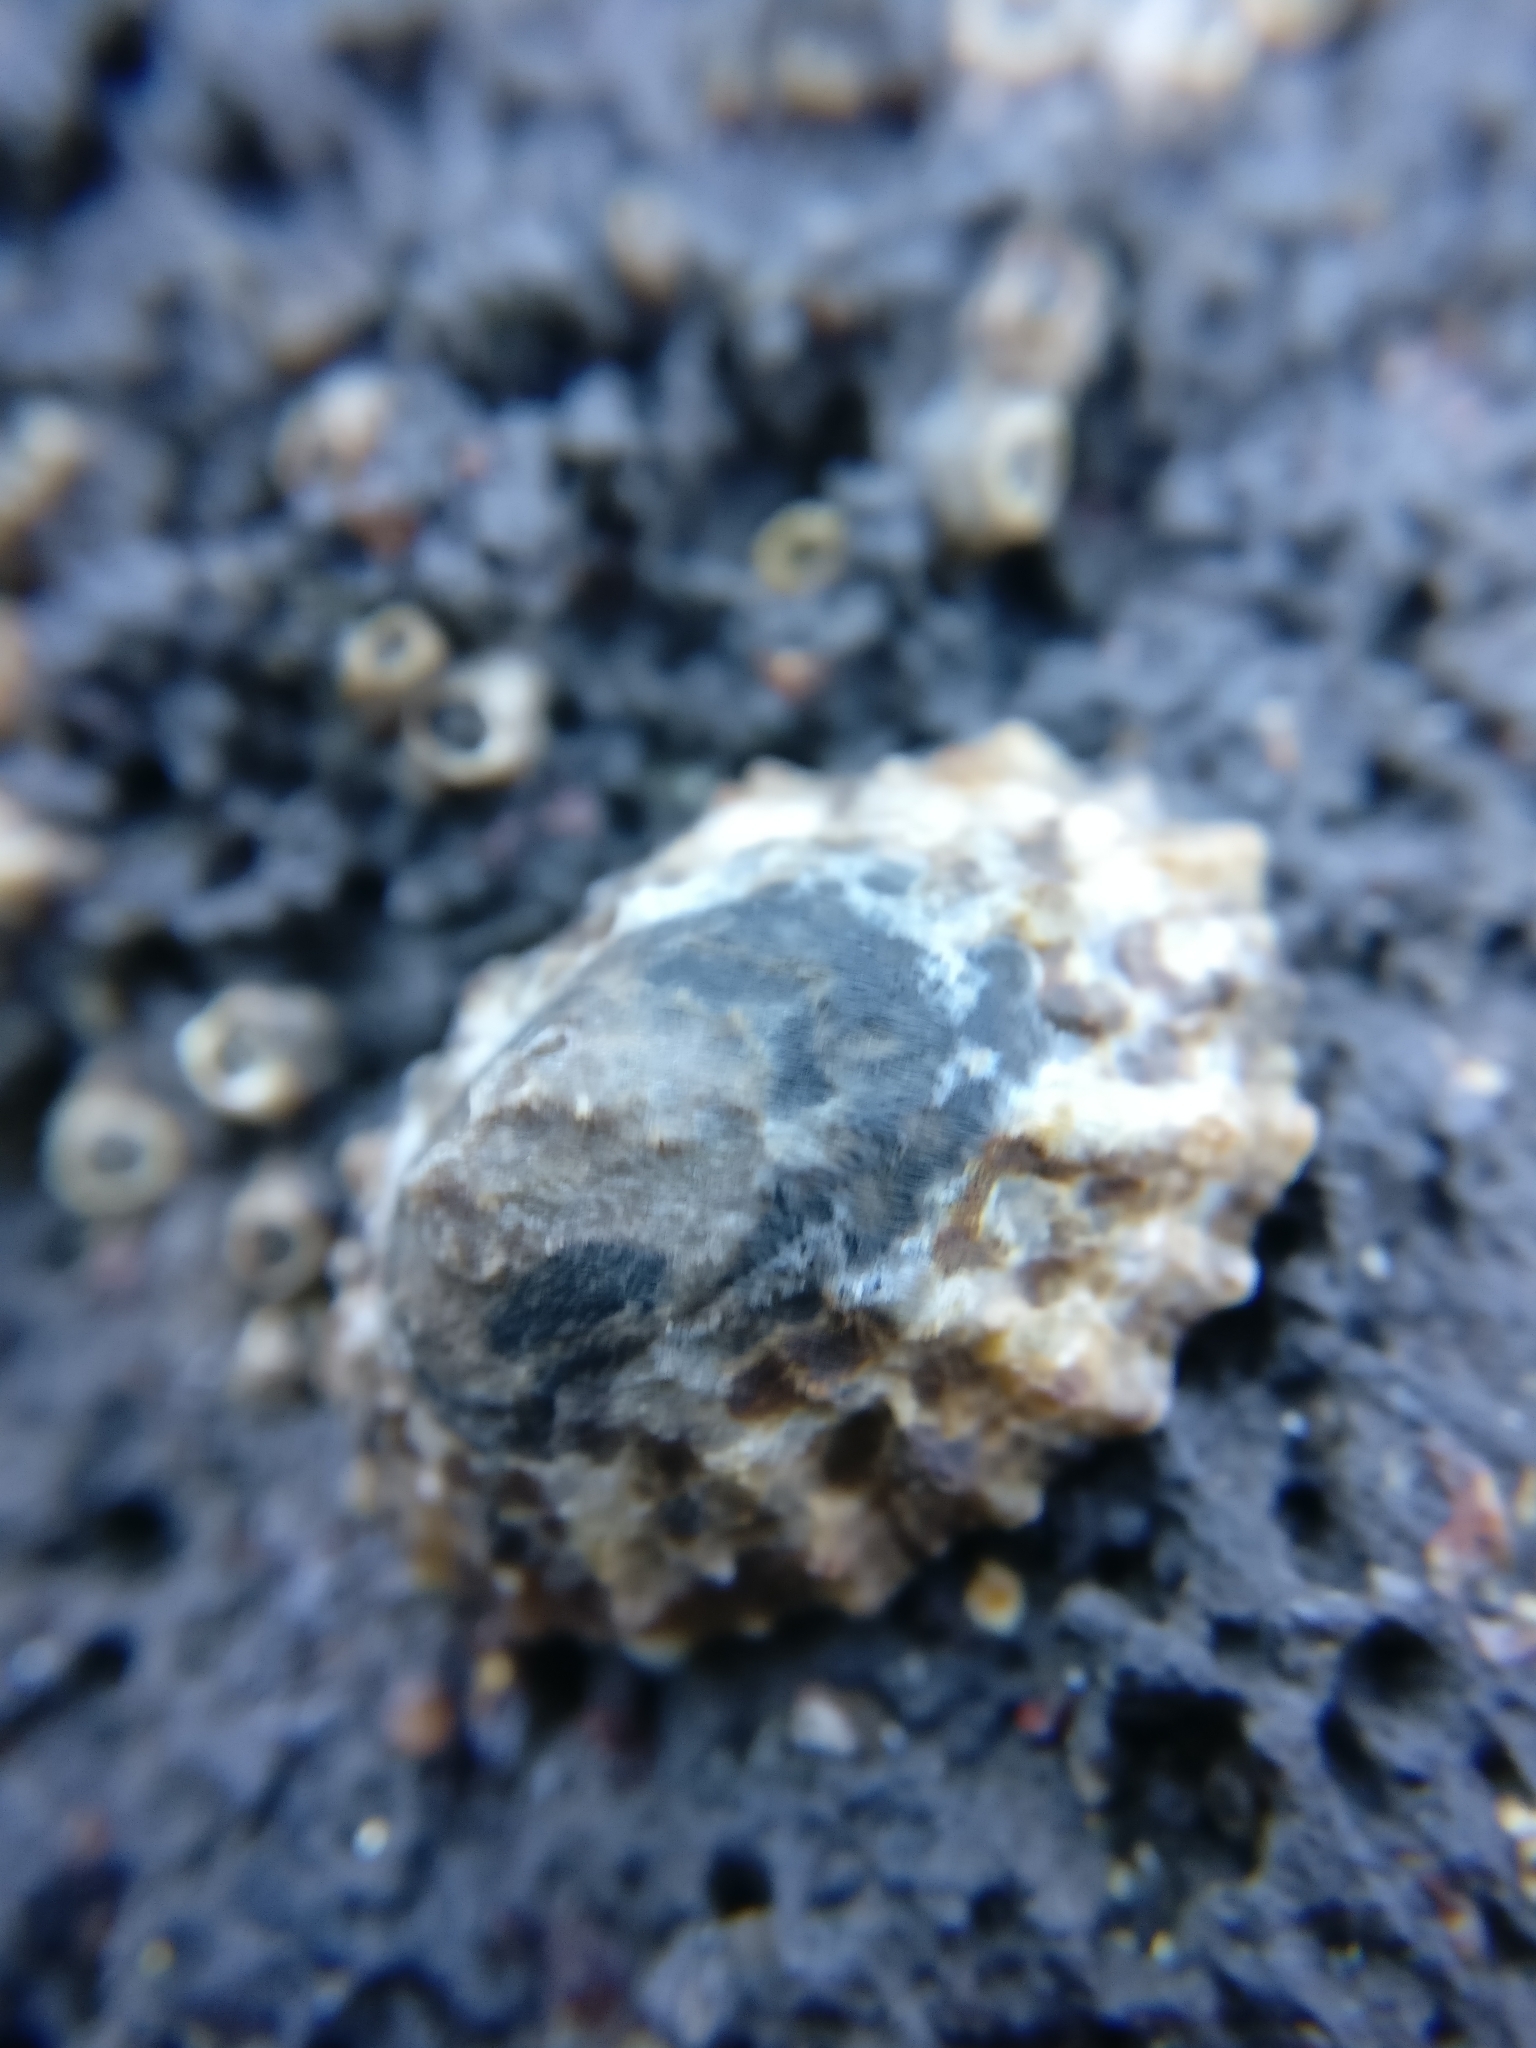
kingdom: Animalia
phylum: Mollusca
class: Gastropoda
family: Nacellidae
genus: Cellana
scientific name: Cellana ornata
